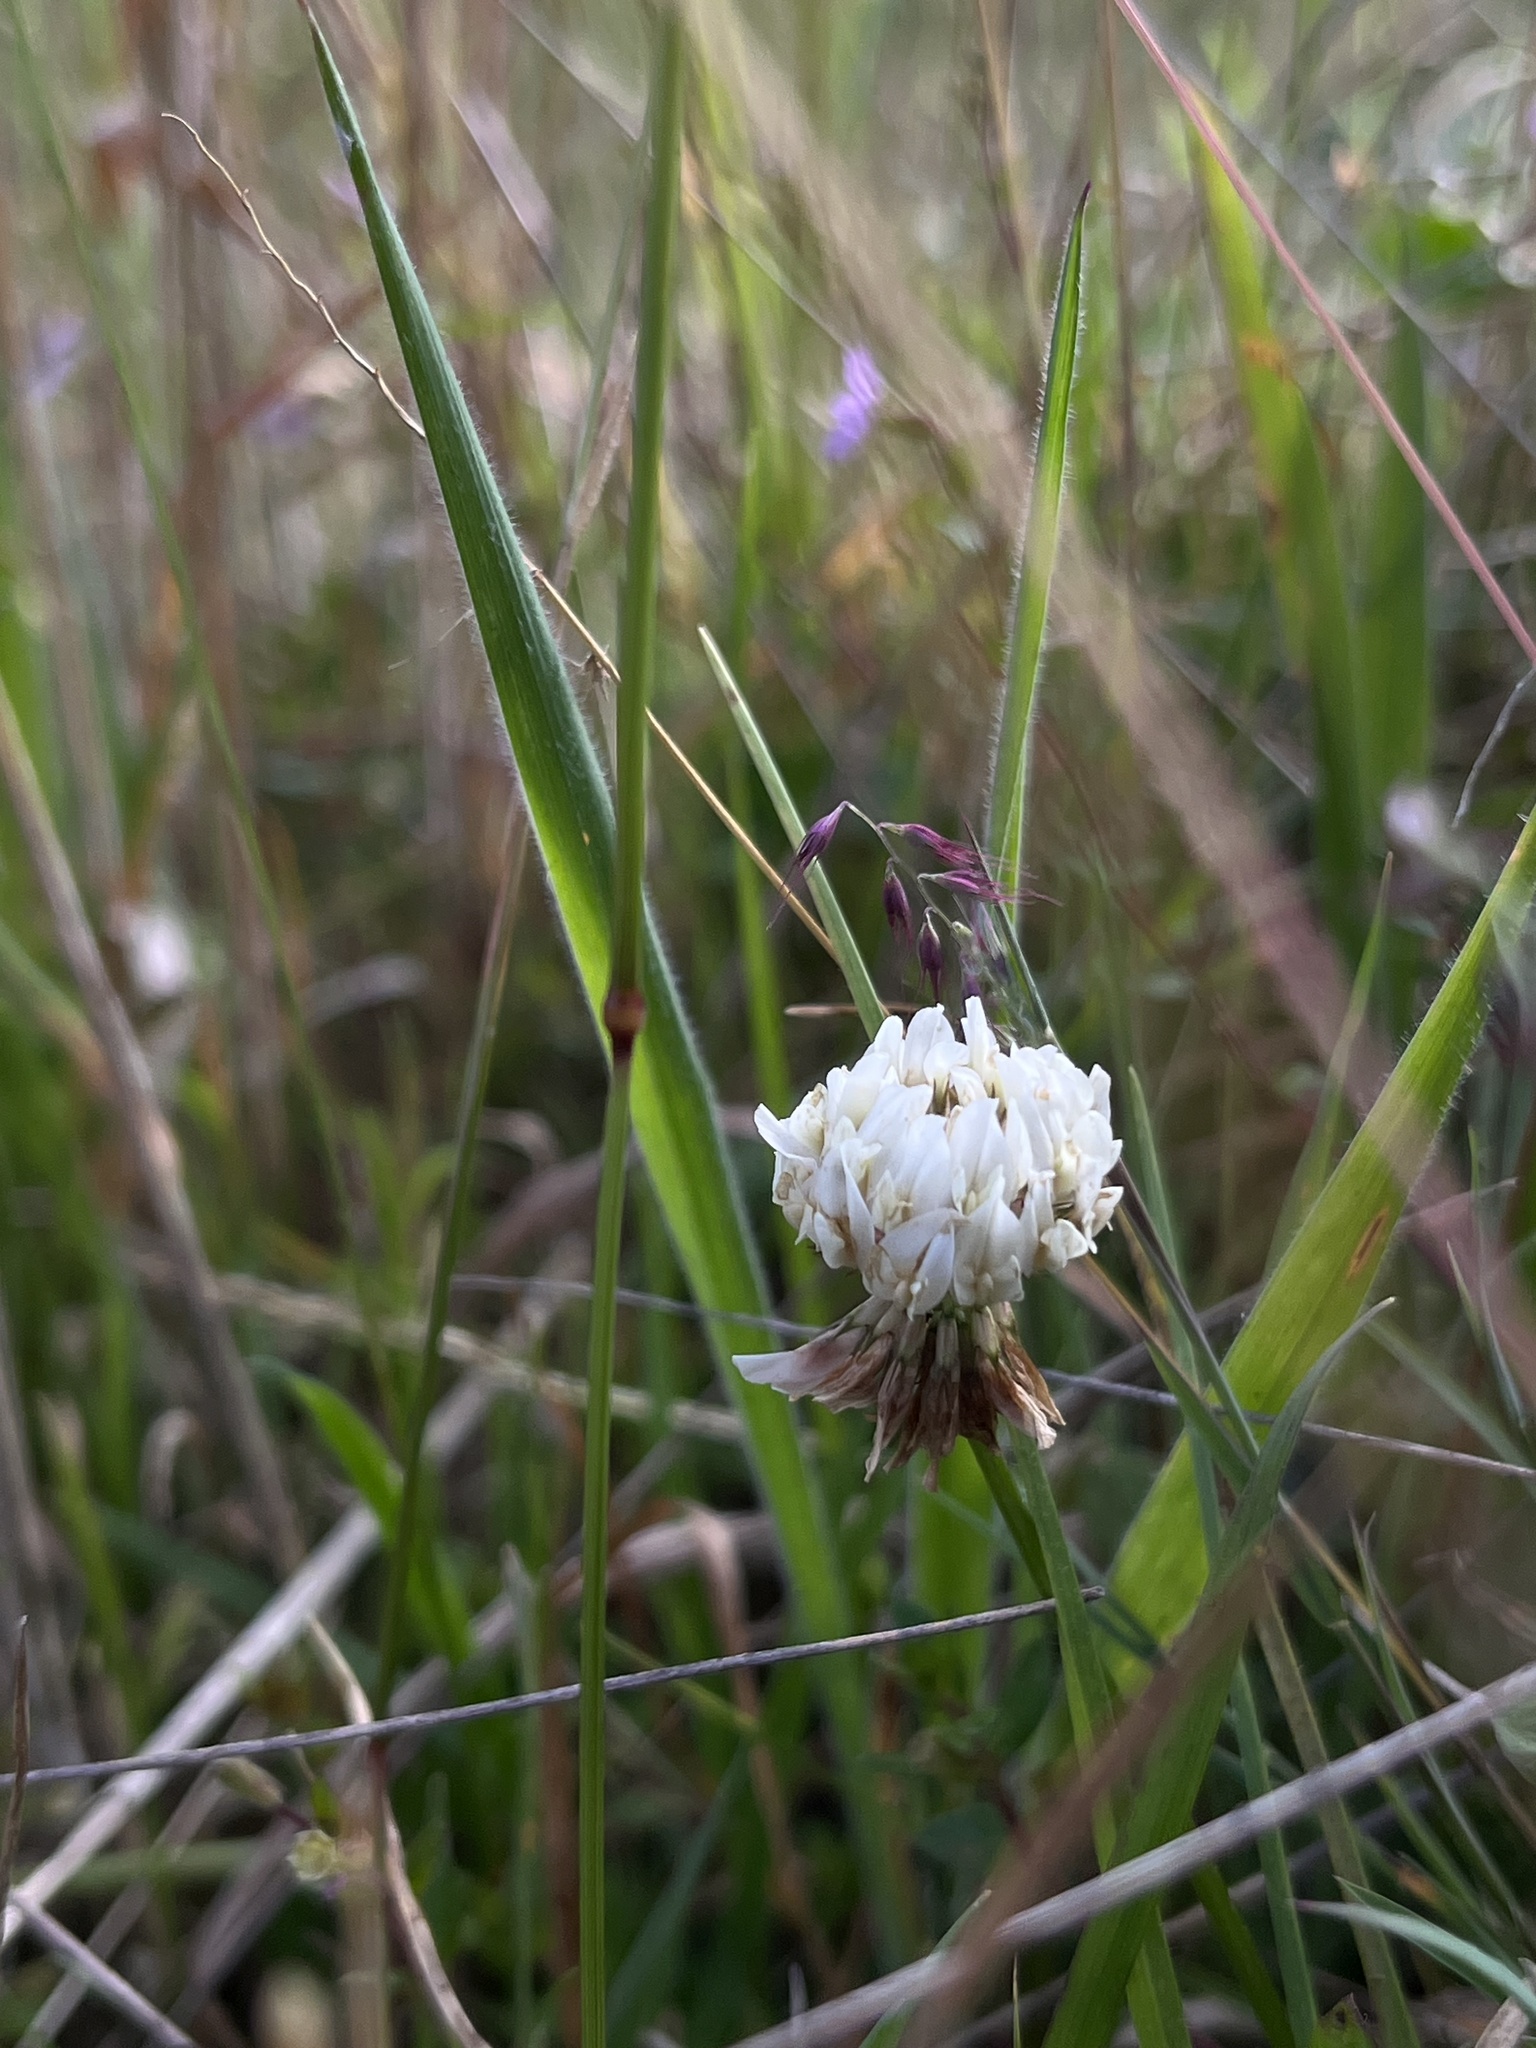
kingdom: Plantae
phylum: Tracheophyta
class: Magnoliopsida
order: Fabales
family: Fabaceae
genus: Trifolium
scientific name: Trifolium repens
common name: White clover
